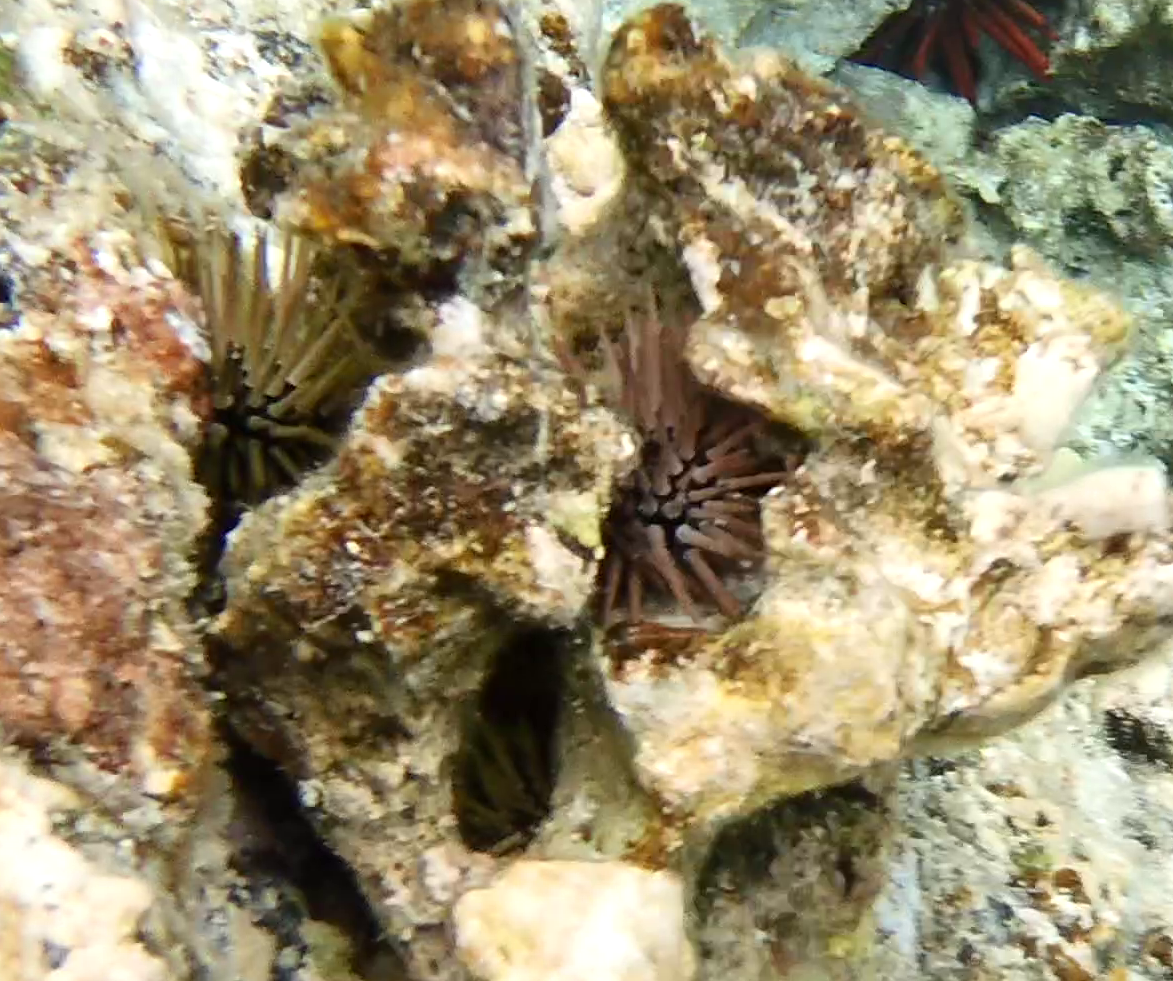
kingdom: Animalia
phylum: Echinodermata
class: Echinoidea
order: Camarodonta
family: Echinometridae
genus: Echinometra
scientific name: Echinometra mathaei
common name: Rock-boring urchin
